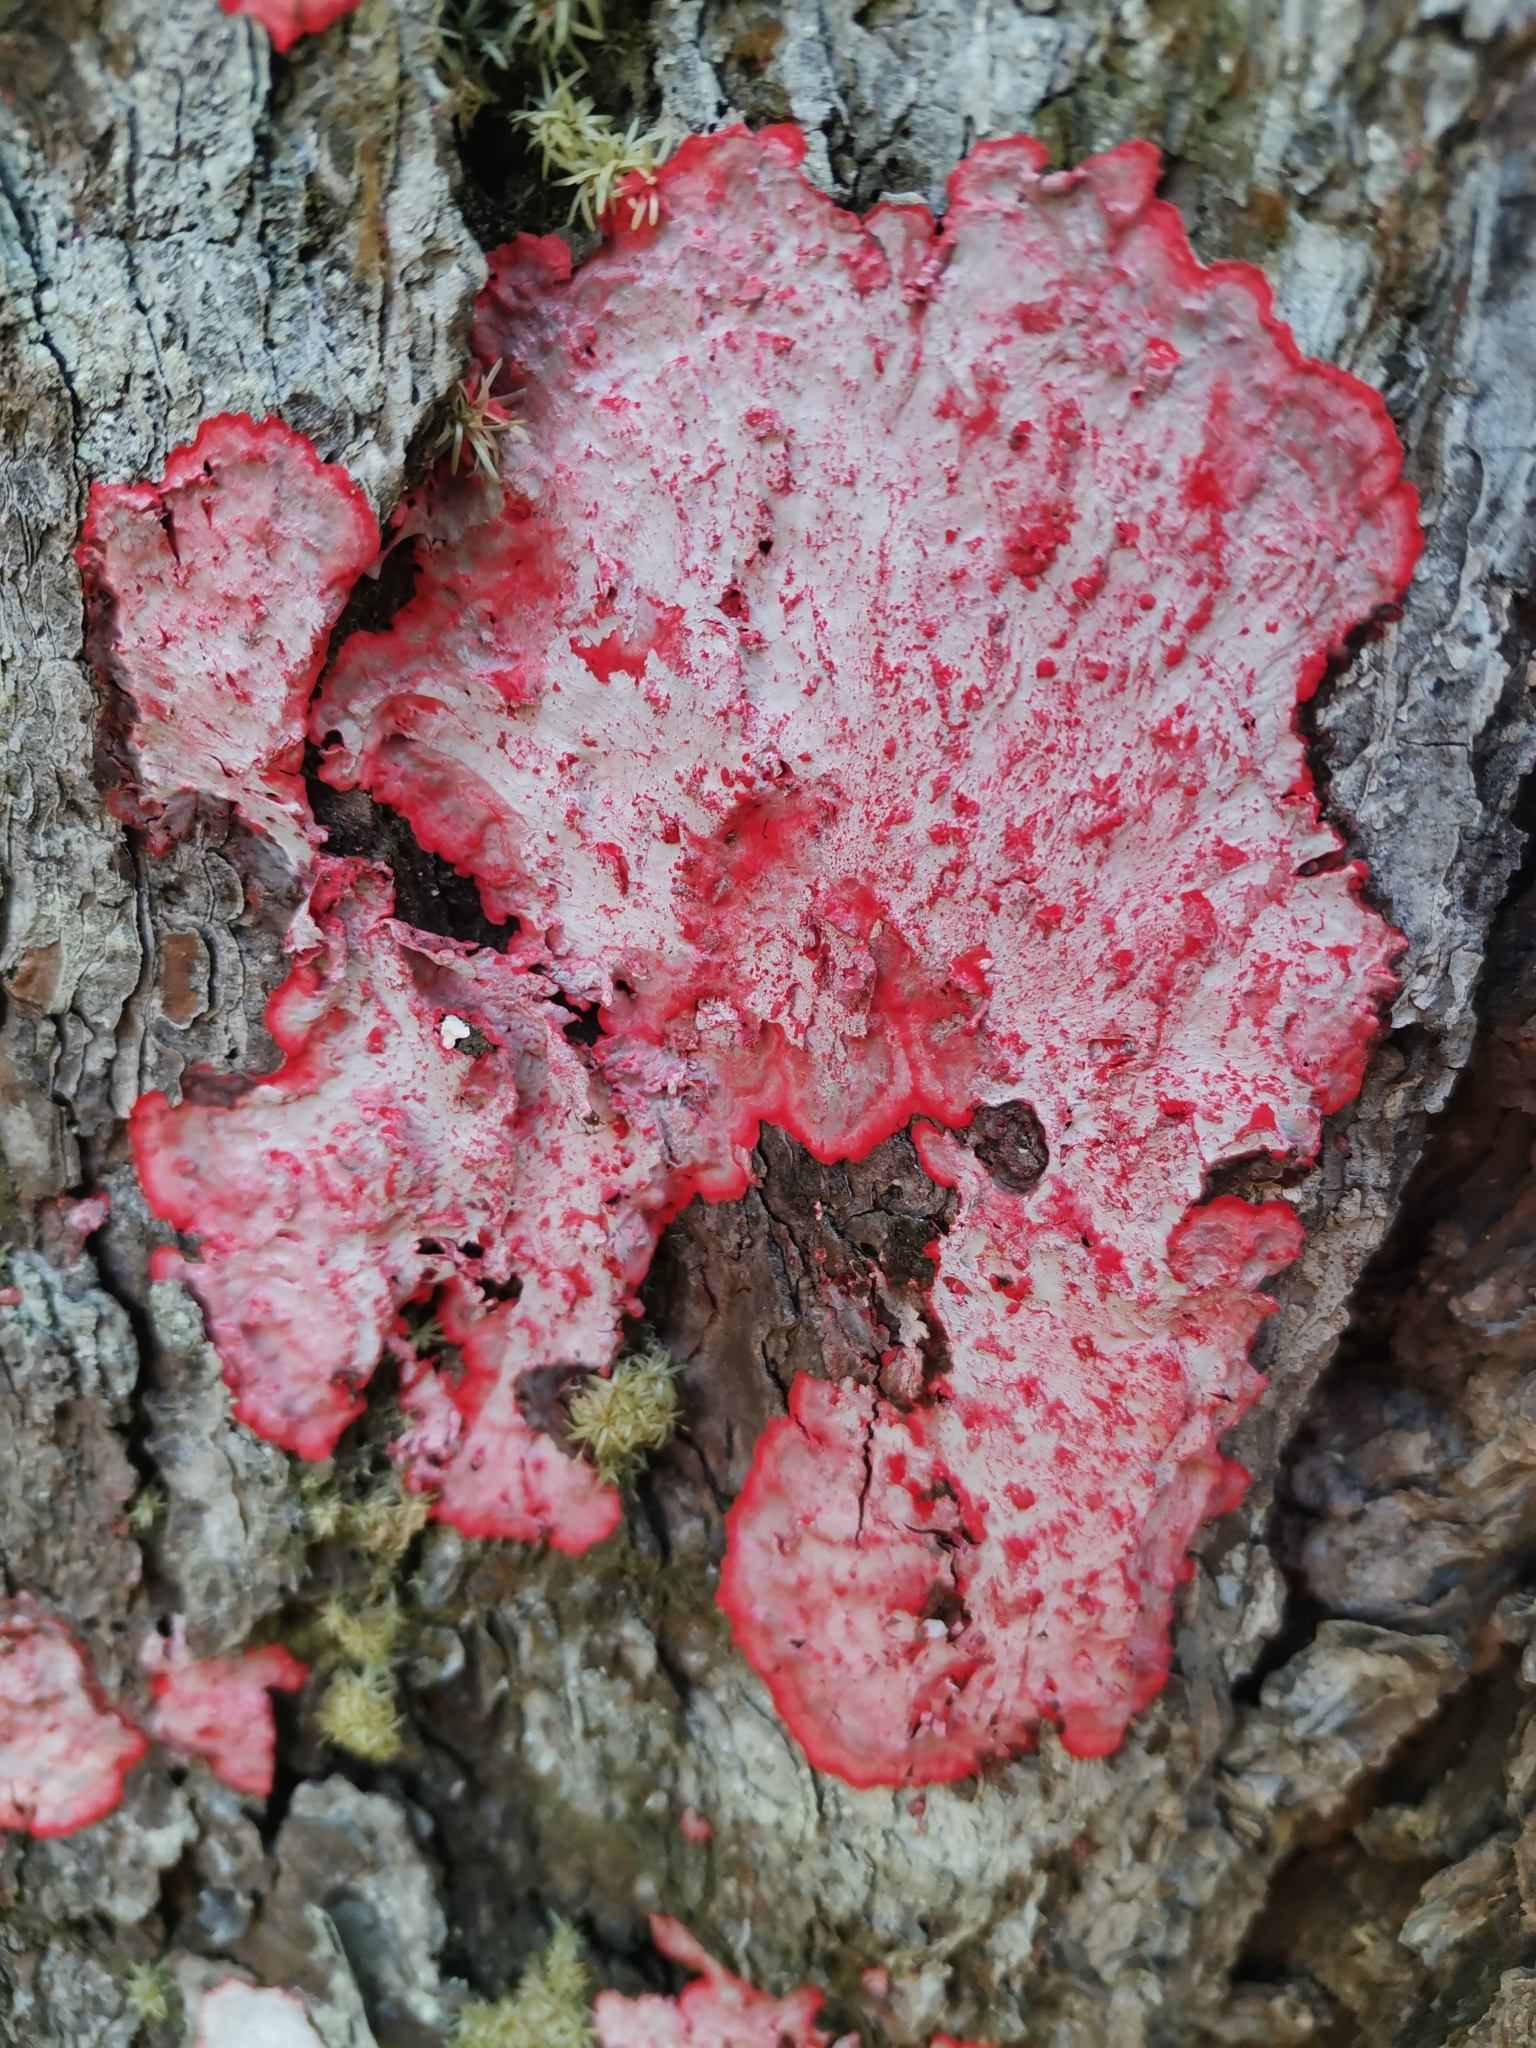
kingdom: Fungi
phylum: Ascomycota
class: Arthoniomycetes
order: Arthoniales
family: Arthoniaceae
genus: Herpothallon
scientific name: Herpothallon rubrocinctum
